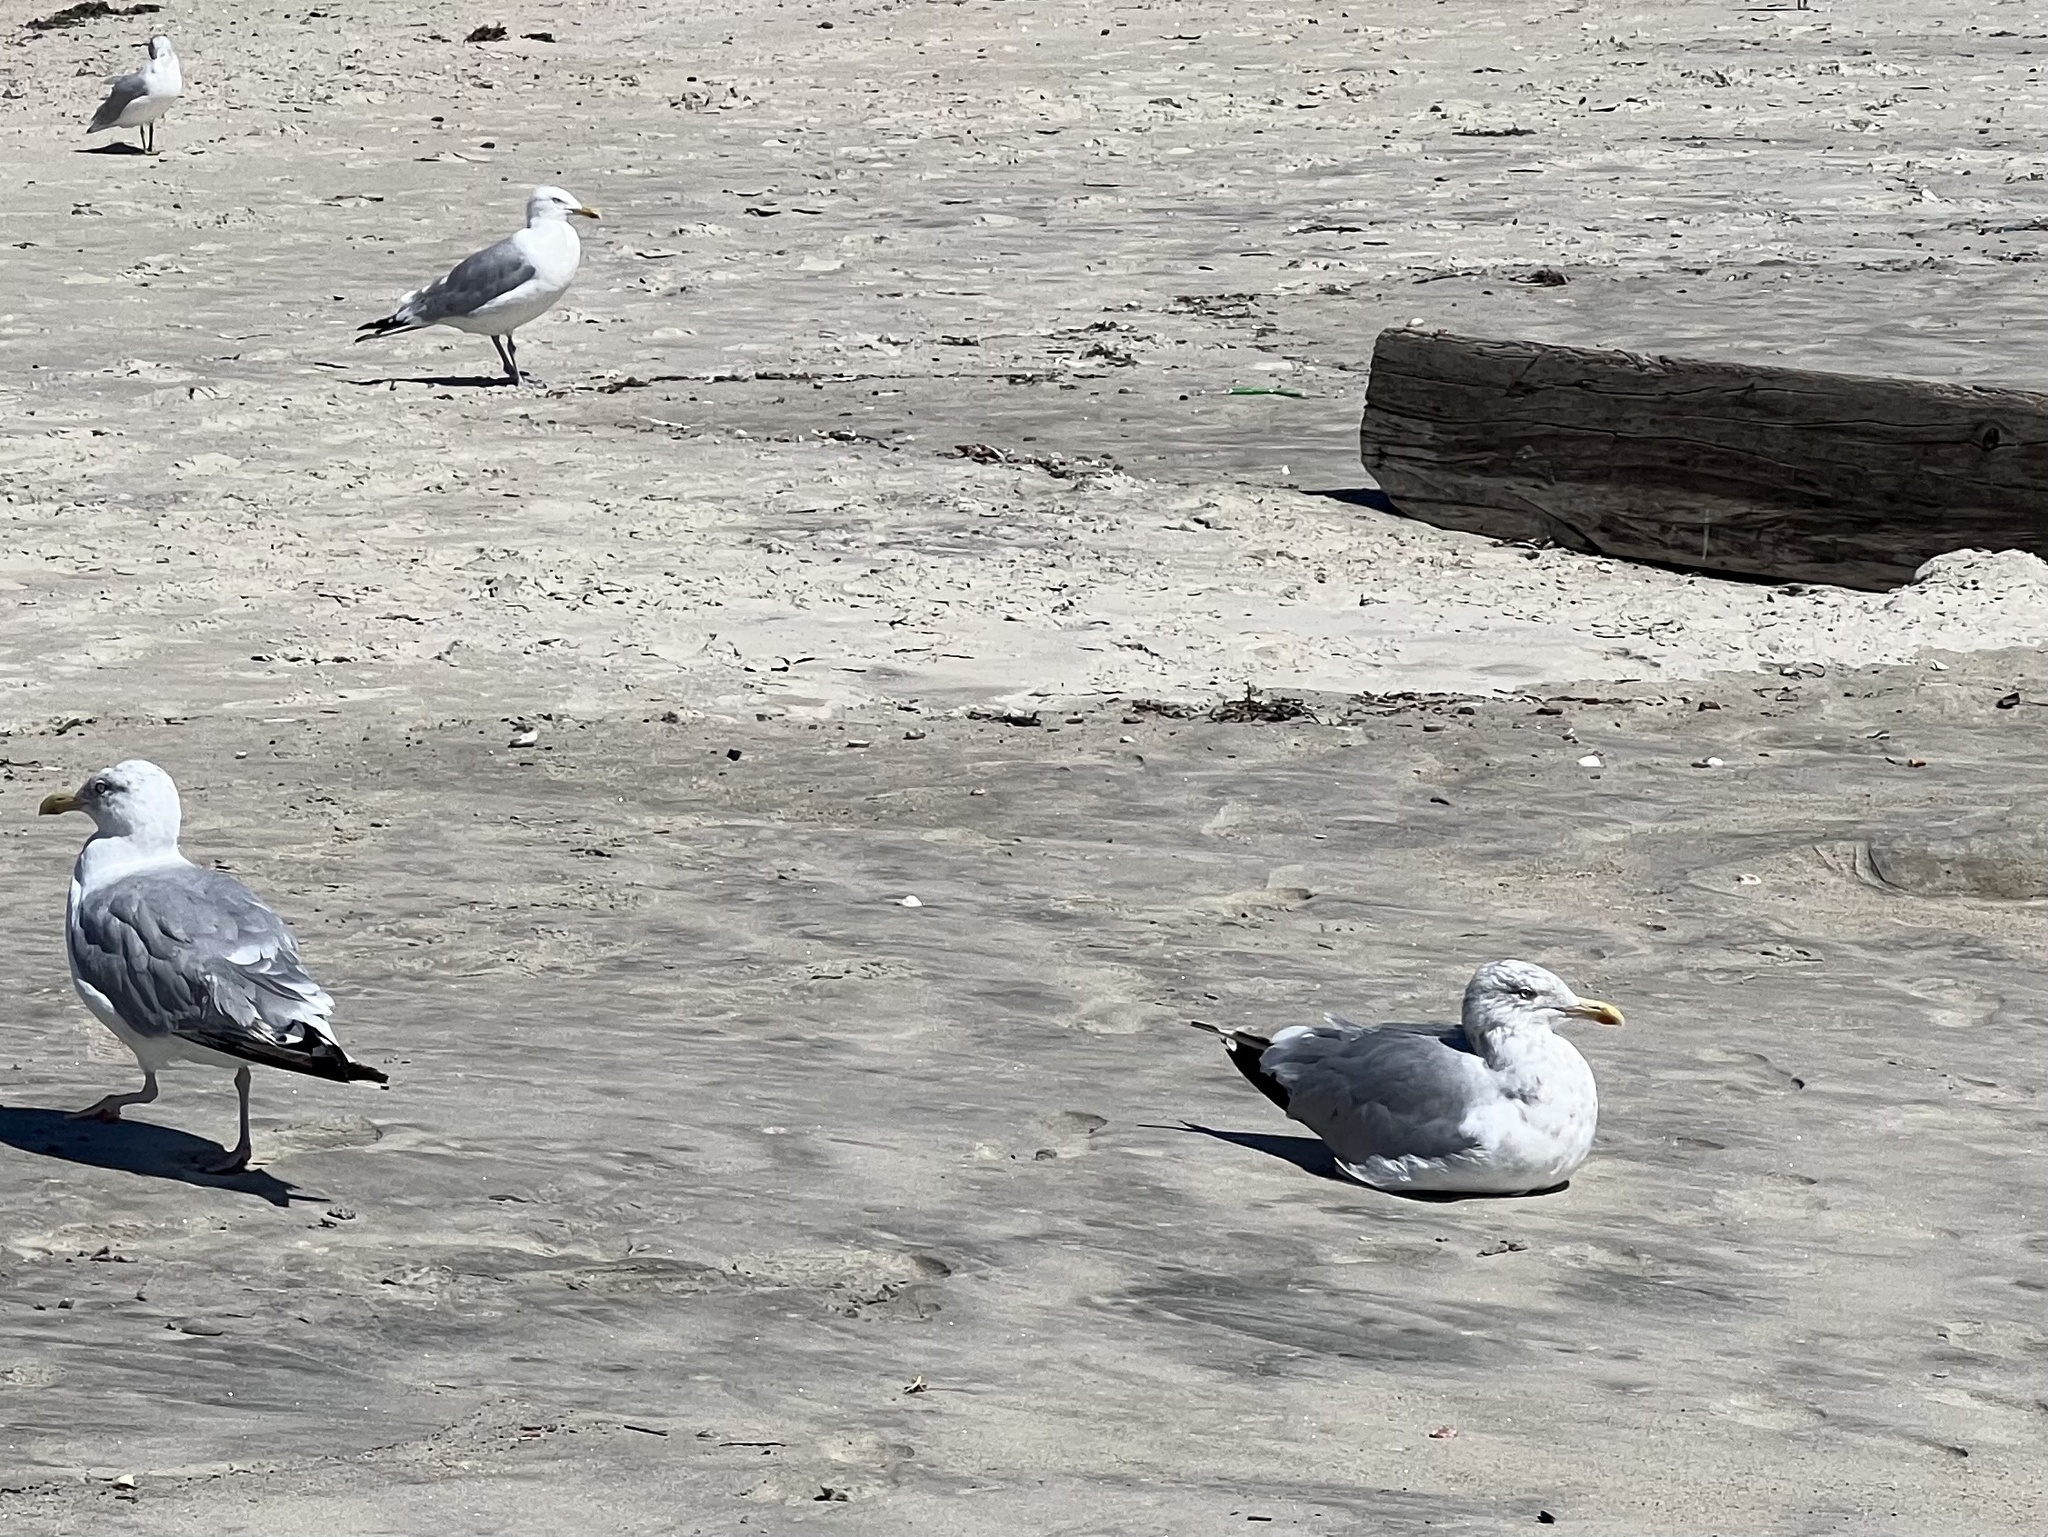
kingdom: Animalia
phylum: Chordata
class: Aves
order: Charadriiformes
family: Laridae
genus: Larus
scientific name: Larus argentatus
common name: Herring gull
